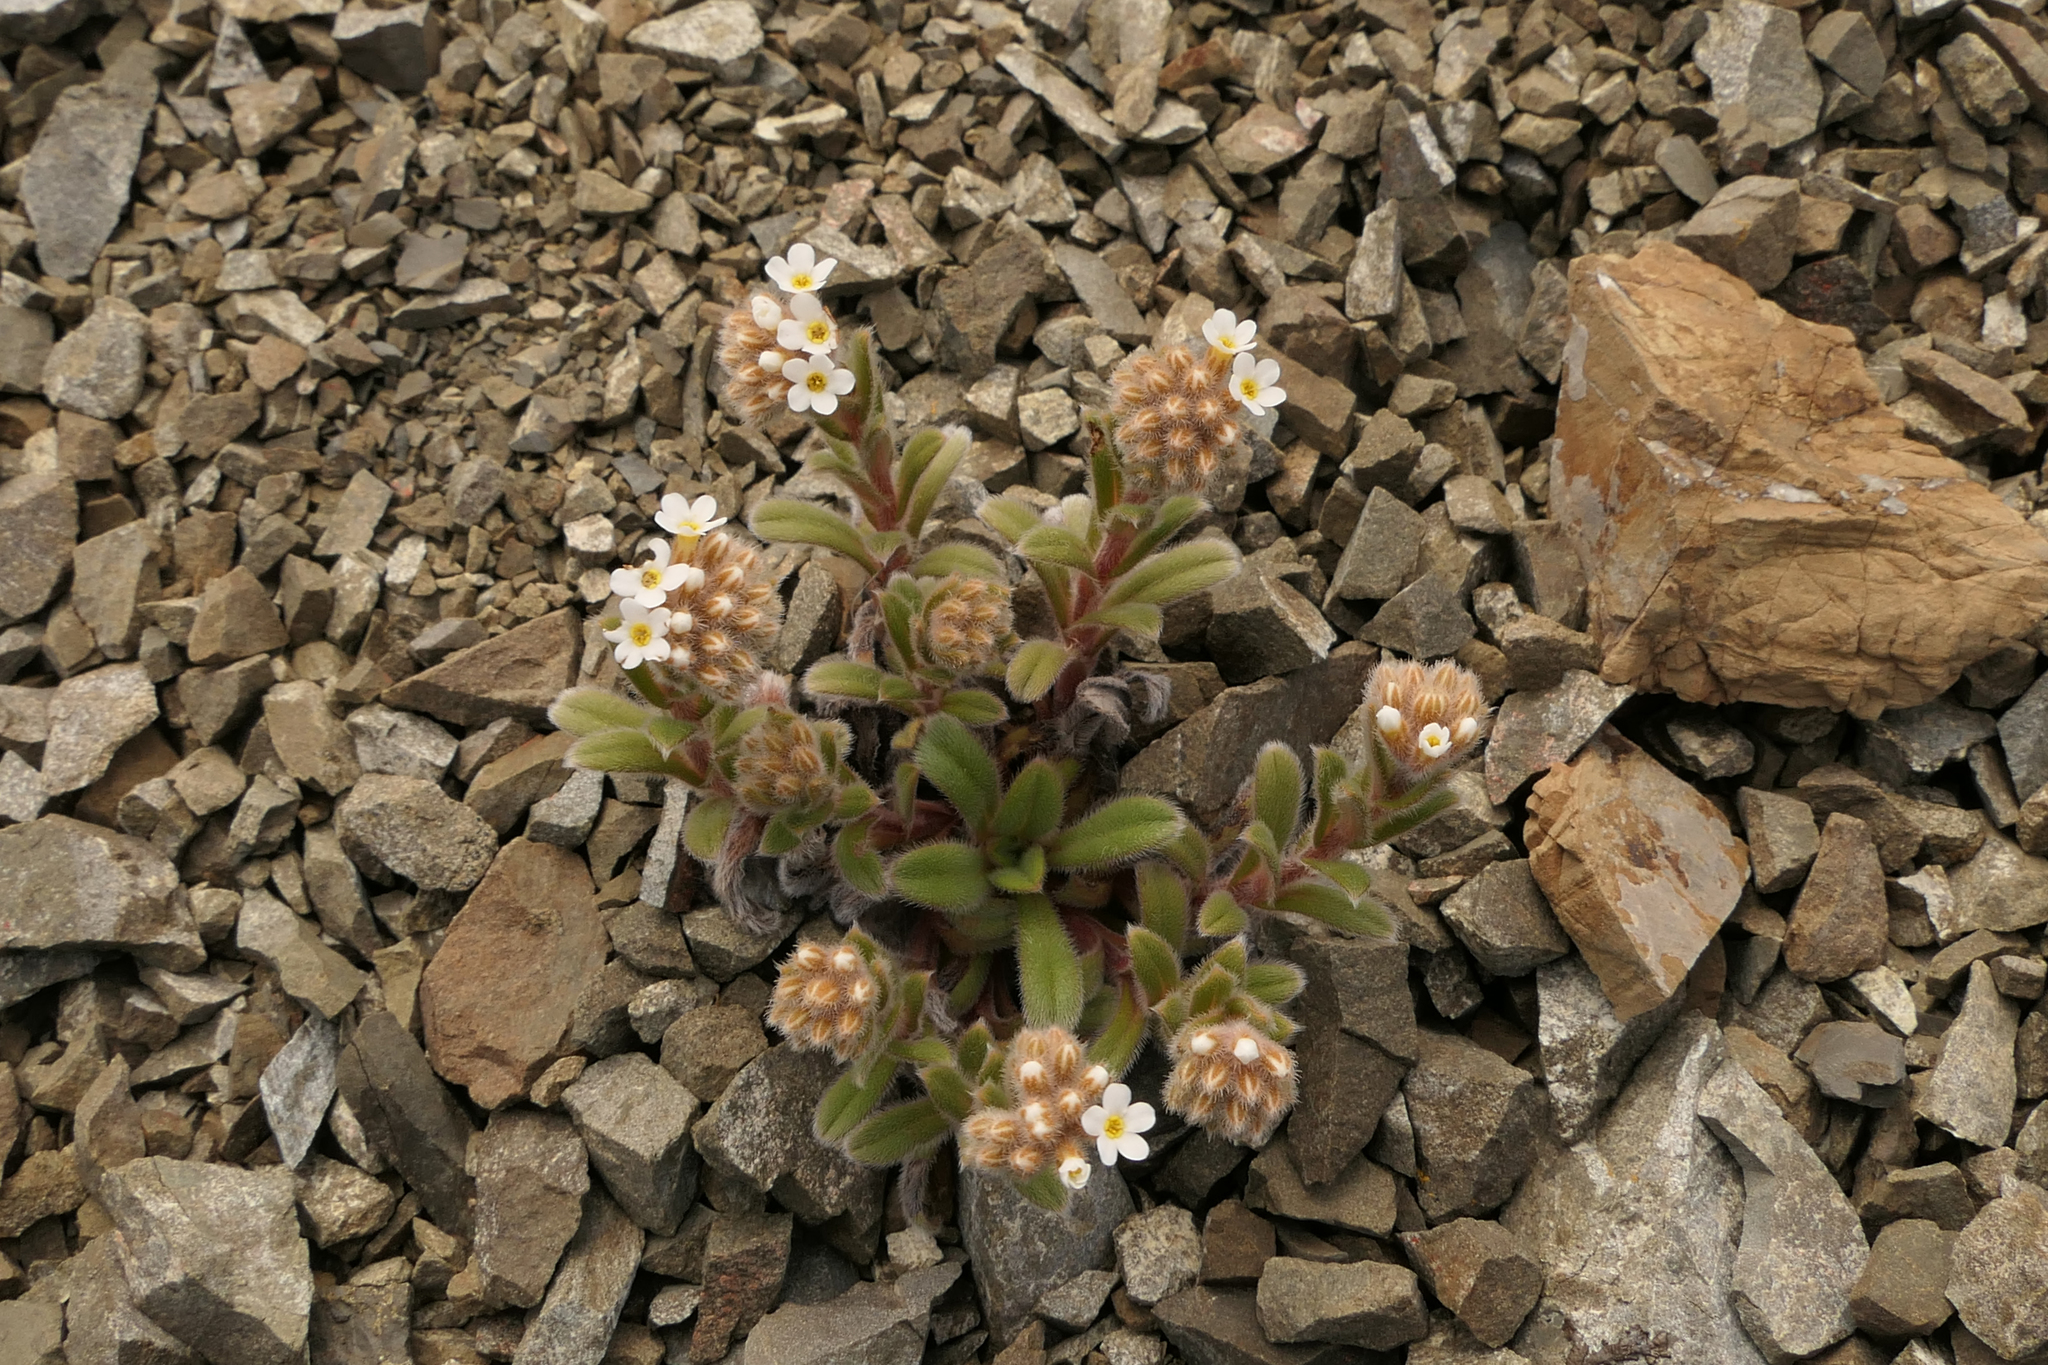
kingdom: Plantae
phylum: Tracheophyta
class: Magnoliopsida
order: Boraginales
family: Boraginaceae
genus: Myosotis
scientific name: Myosotis traversii
